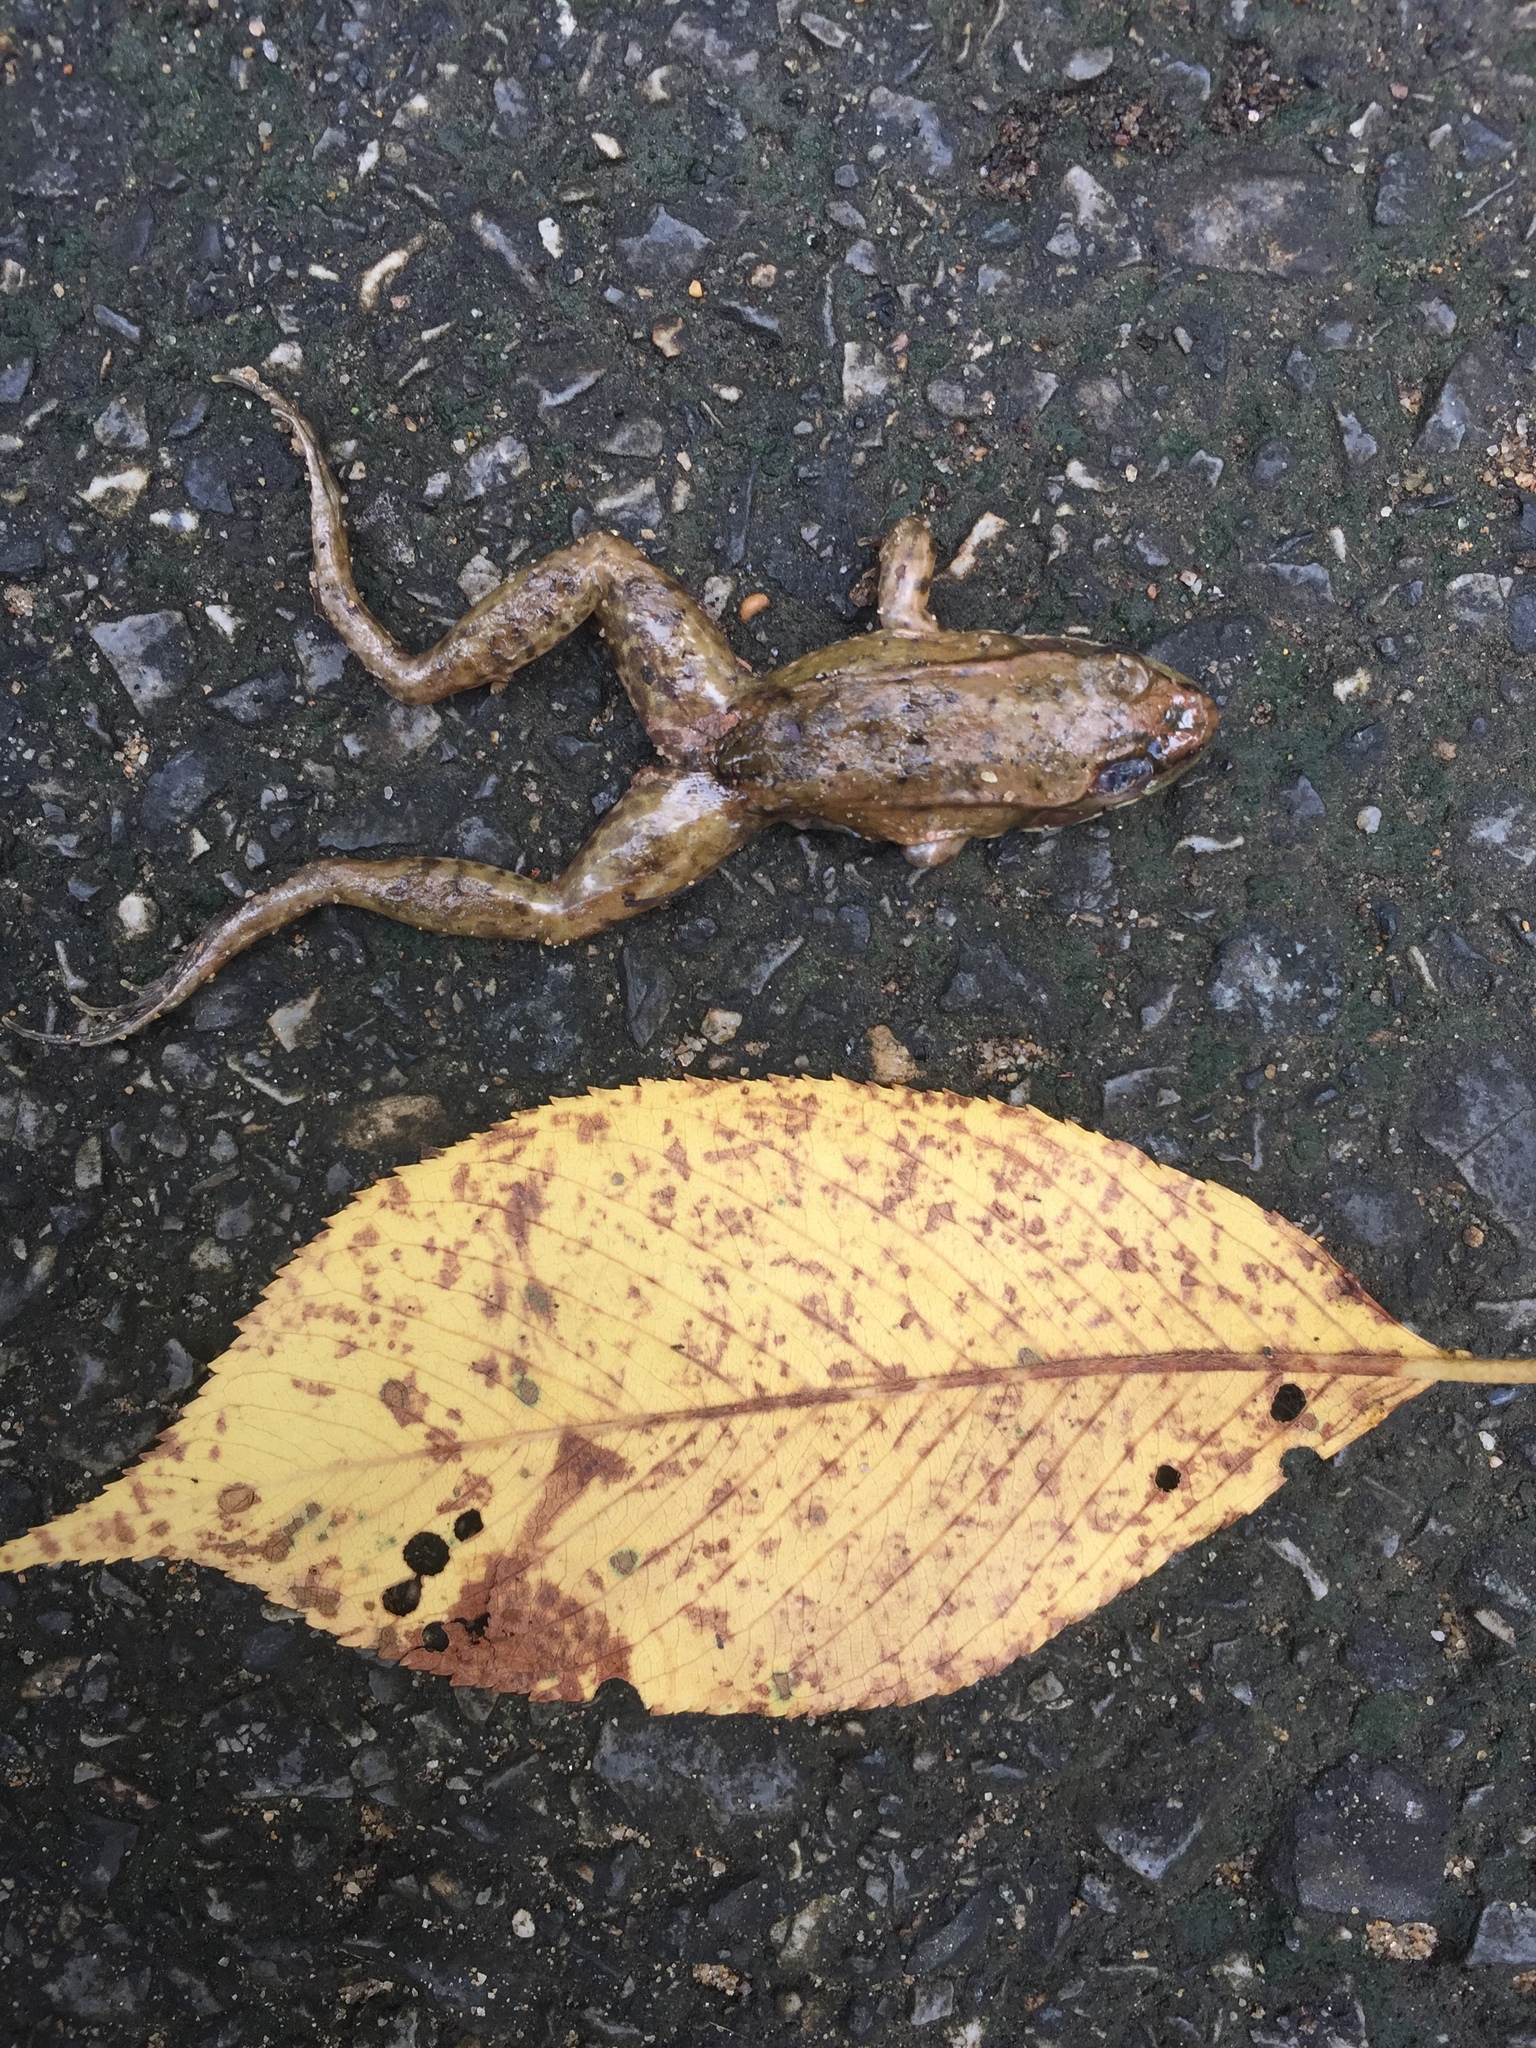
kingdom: Animalia
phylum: Chordata
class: Amphibia
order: Anura
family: Ranidae
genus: Lithobates
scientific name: Lithobates clamitans
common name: Green frog
